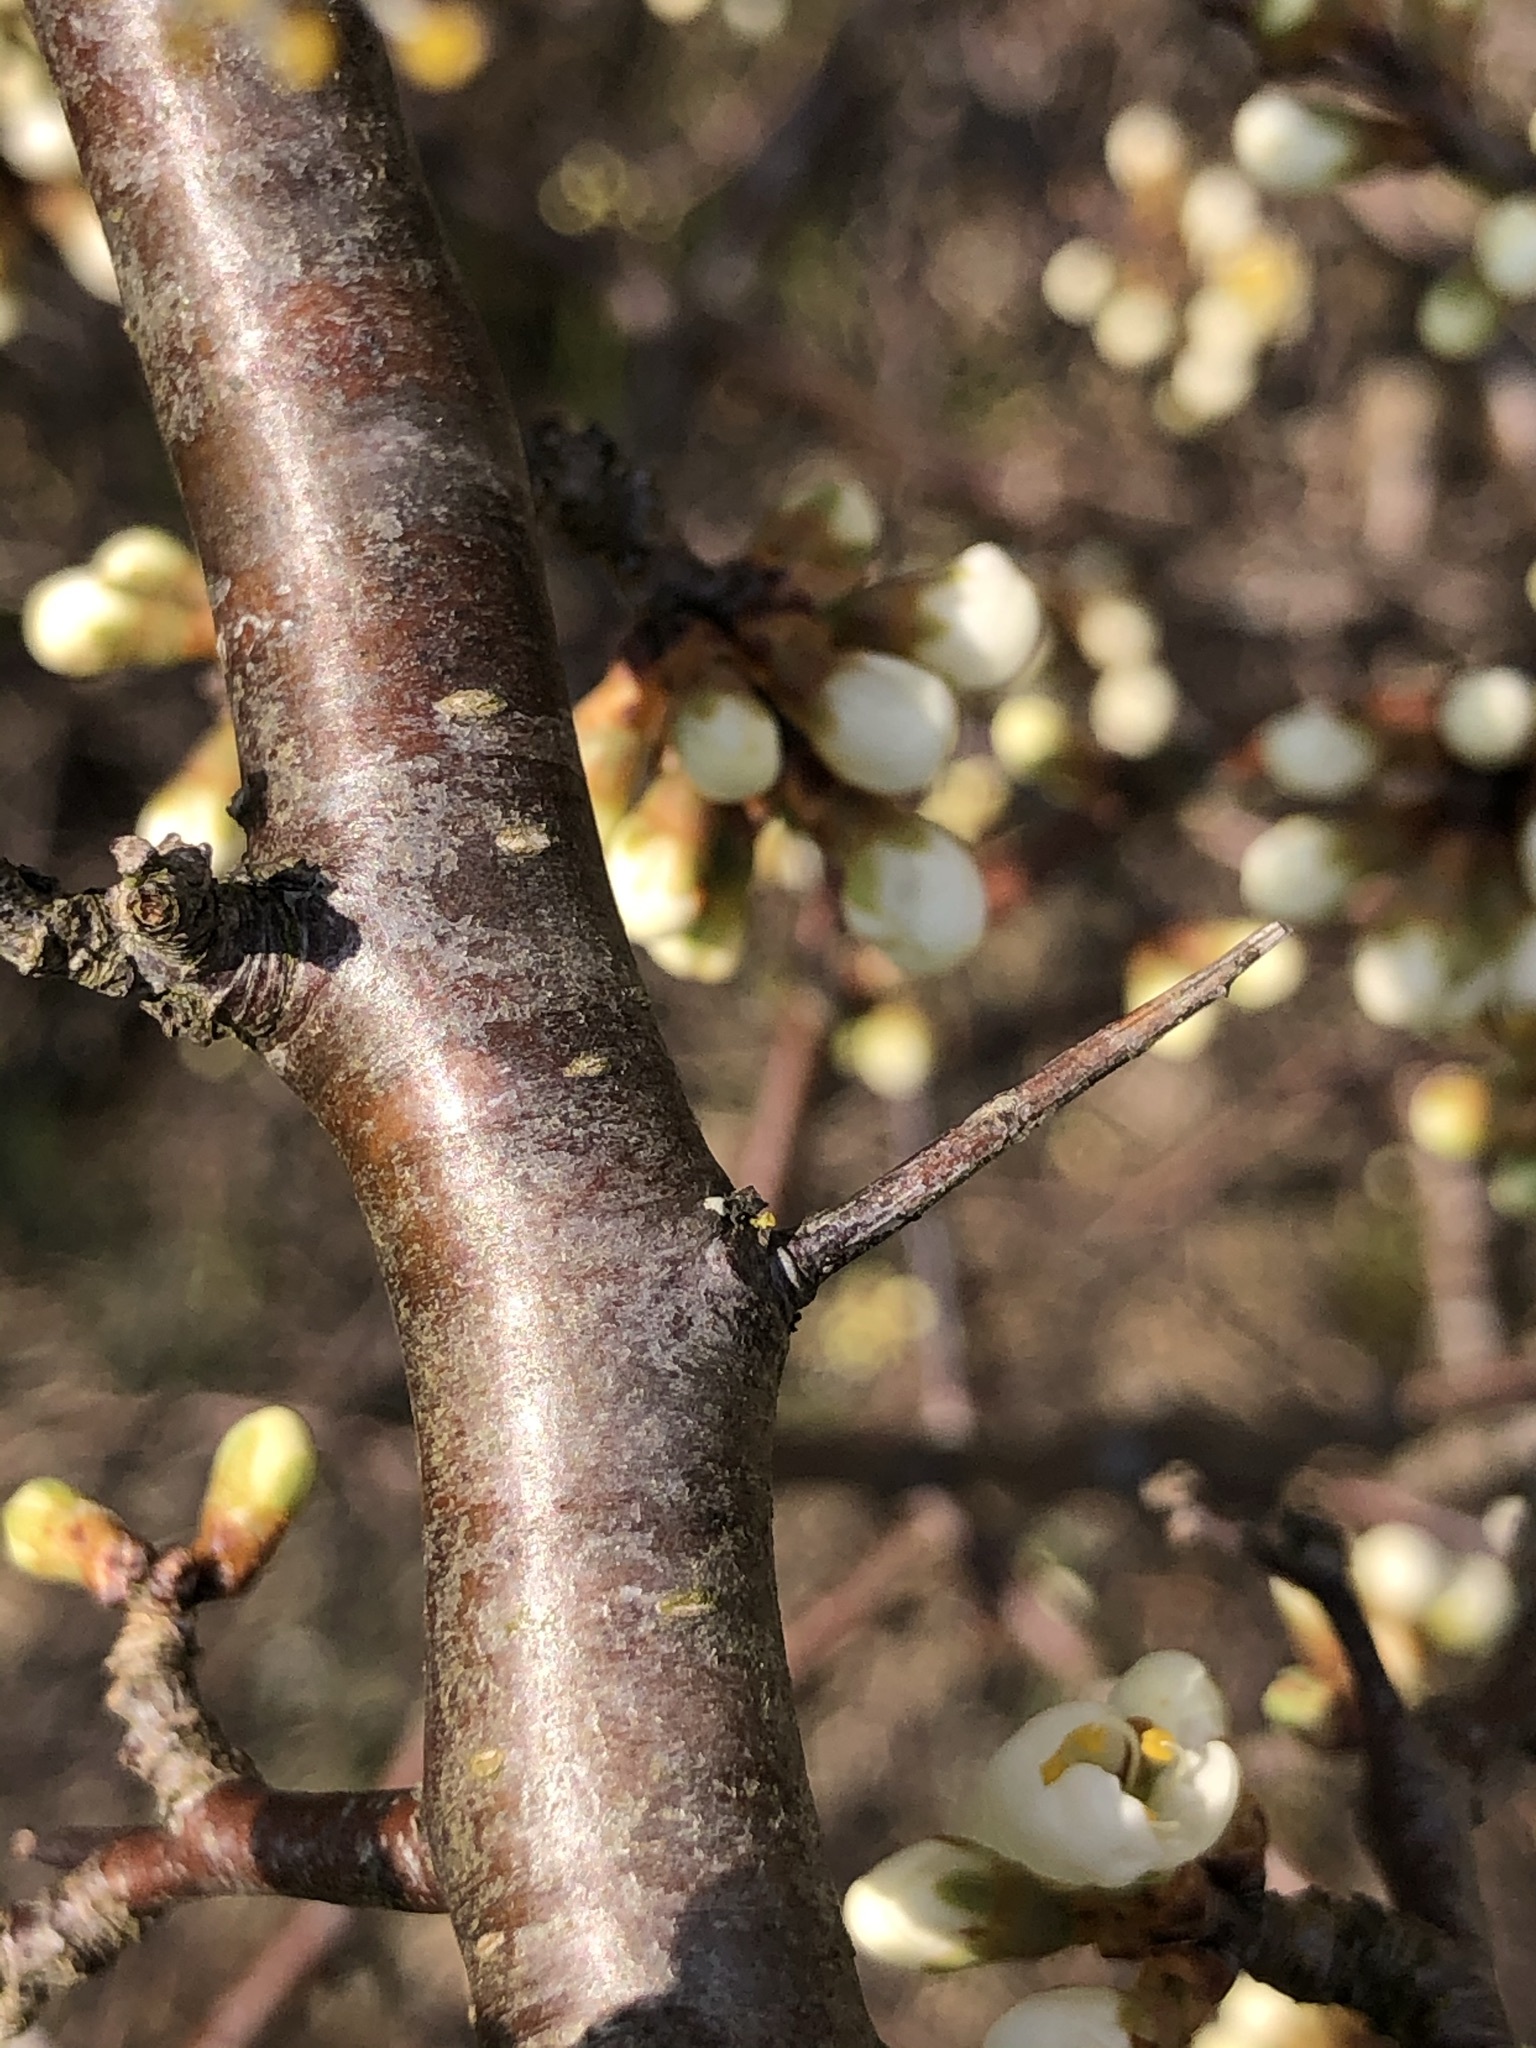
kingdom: Plantae
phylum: Tracheophyta
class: Magnoliopsida
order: Rosales
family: Rosaceae
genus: Prunus
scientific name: Prunus spinosa
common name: Blackthorn
